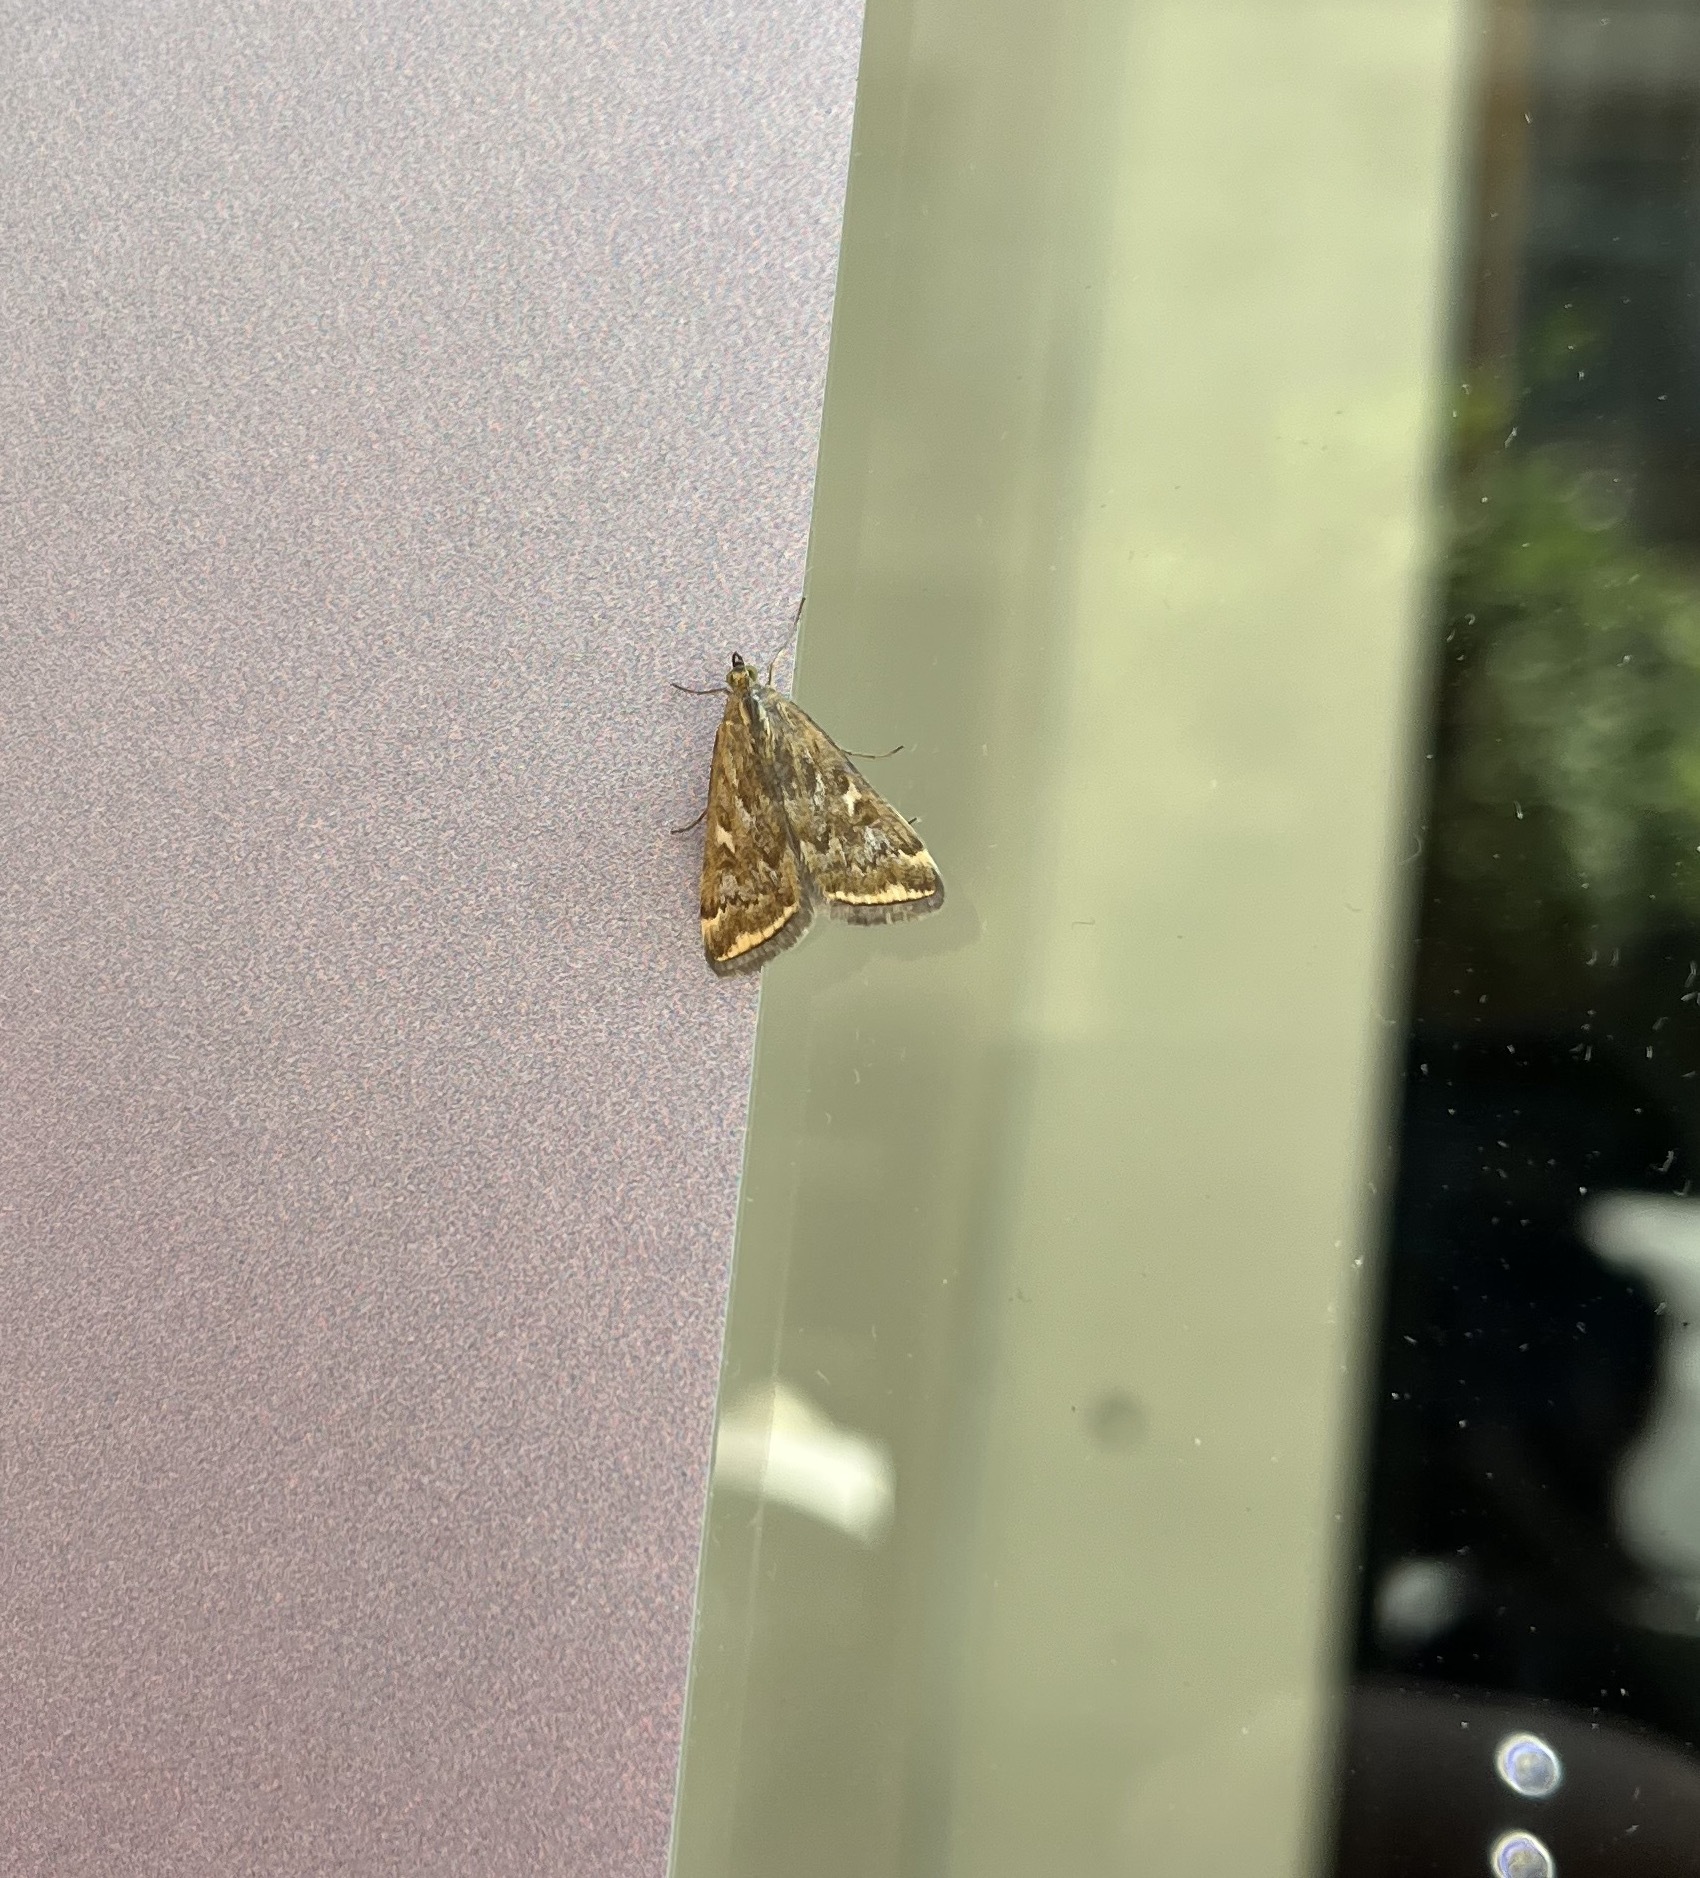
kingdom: Animalia
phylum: Arthropoda
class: Insecta
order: Lepidoptera
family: Crambidae
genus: Loxostege
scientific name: Loxostege sticticalis
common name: Crambid moth
